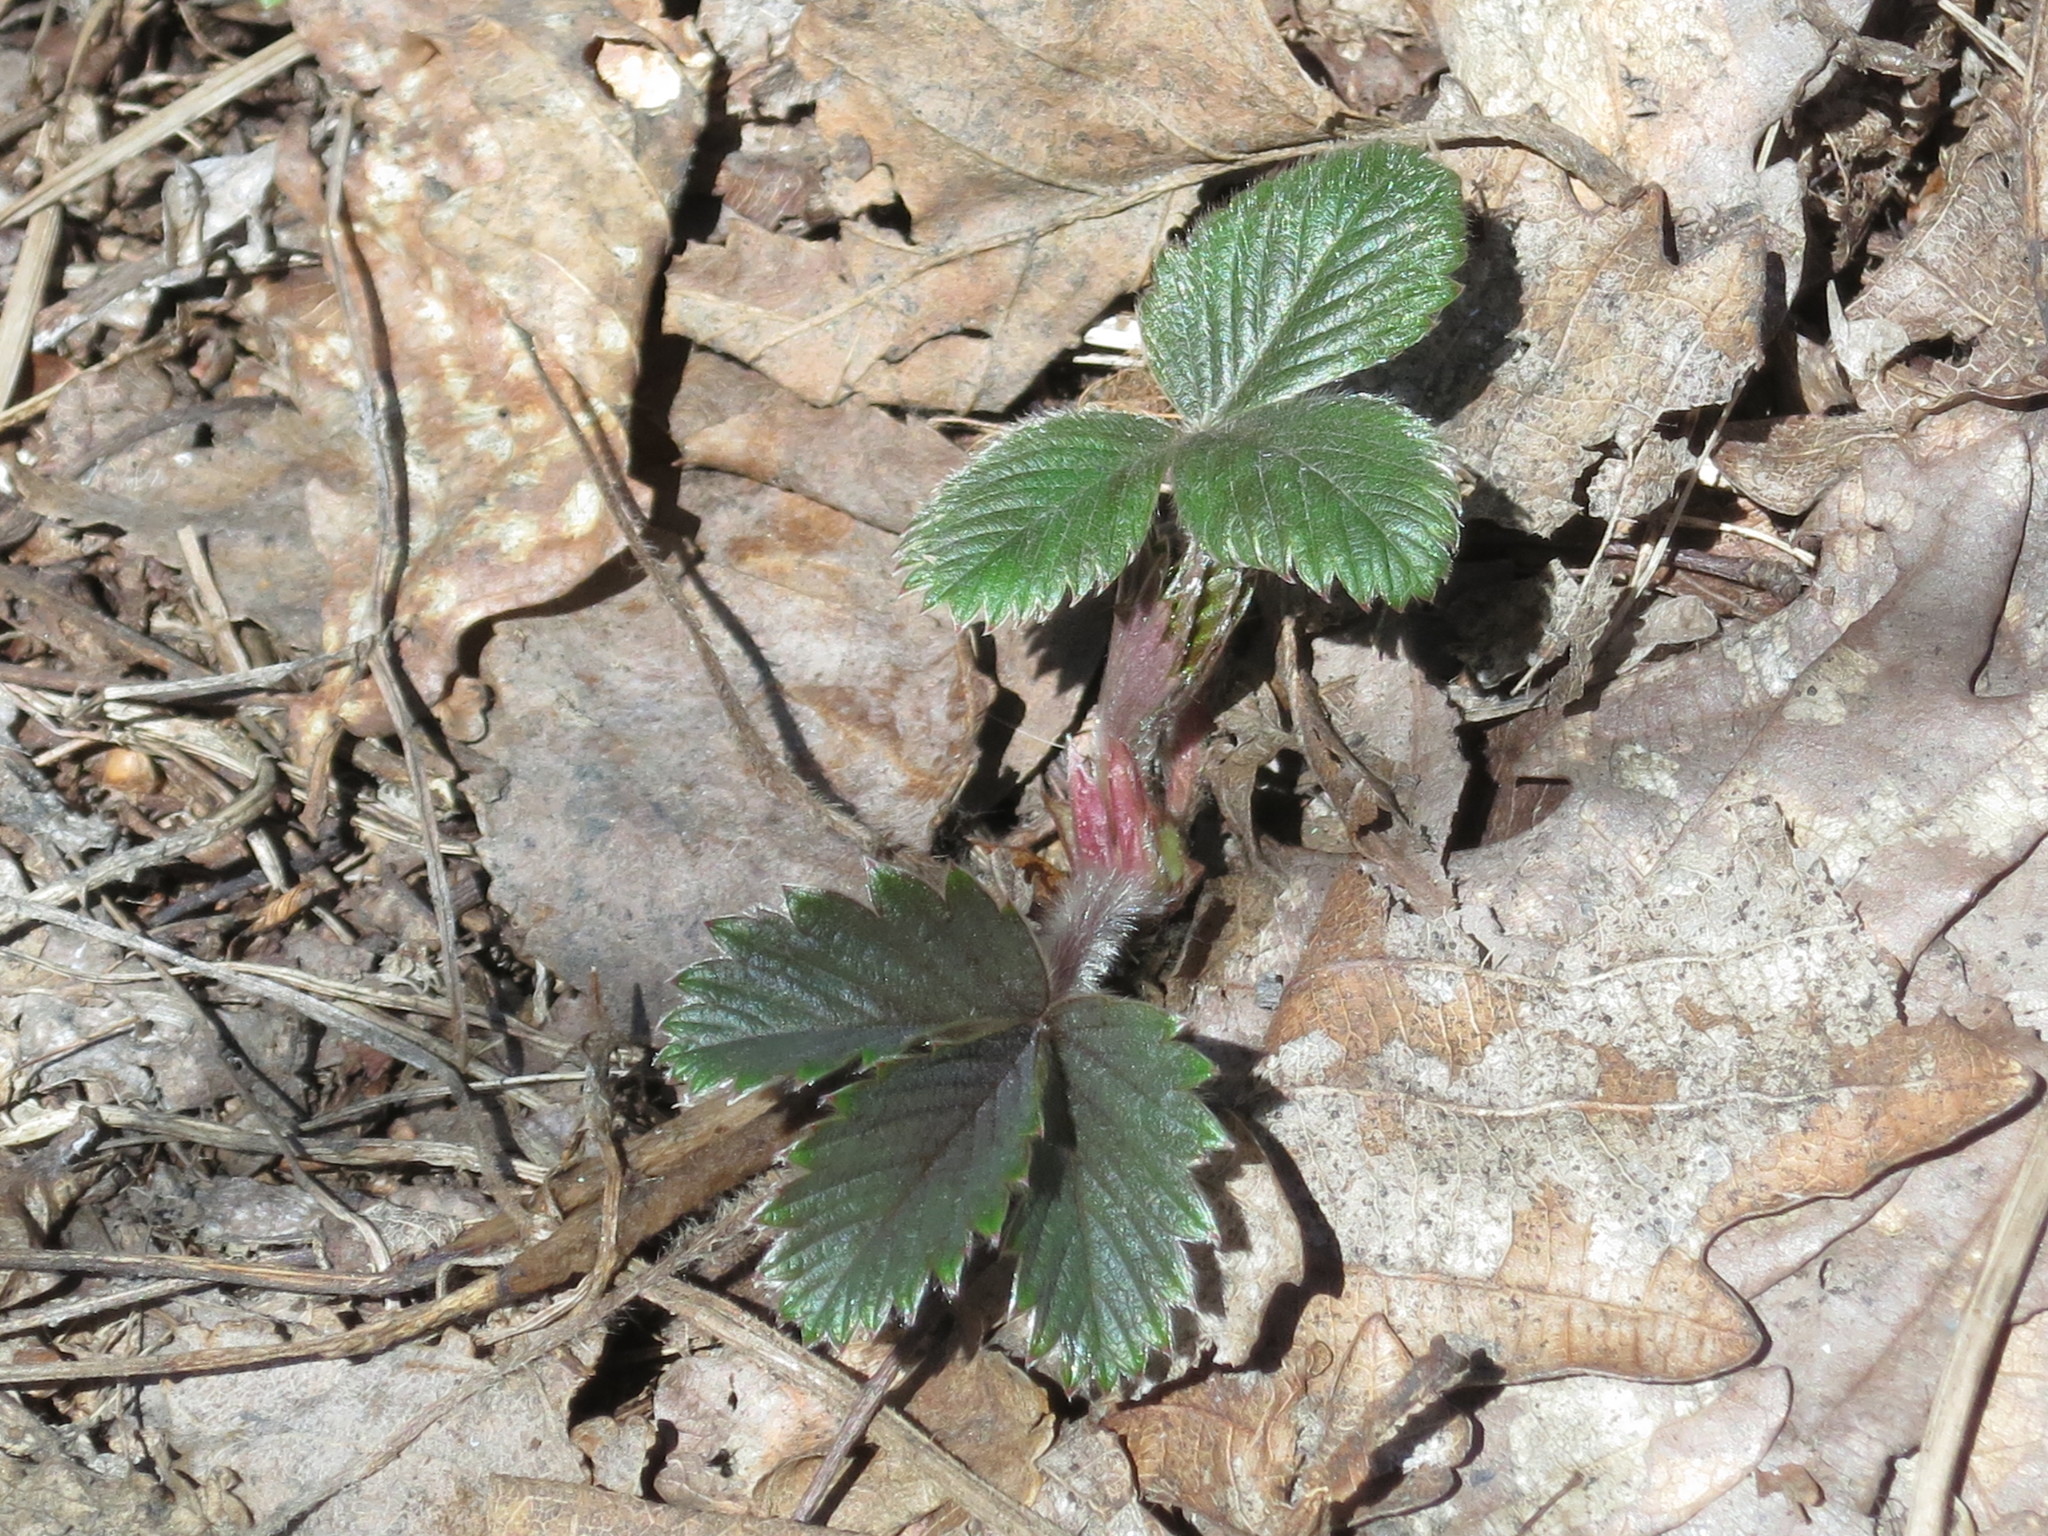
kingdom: Plantae
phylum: Tracheophyta
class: Magnoliopsida
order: Rosales
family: Rosaceae
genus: Fragaria
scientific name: Fragaria orientalis
